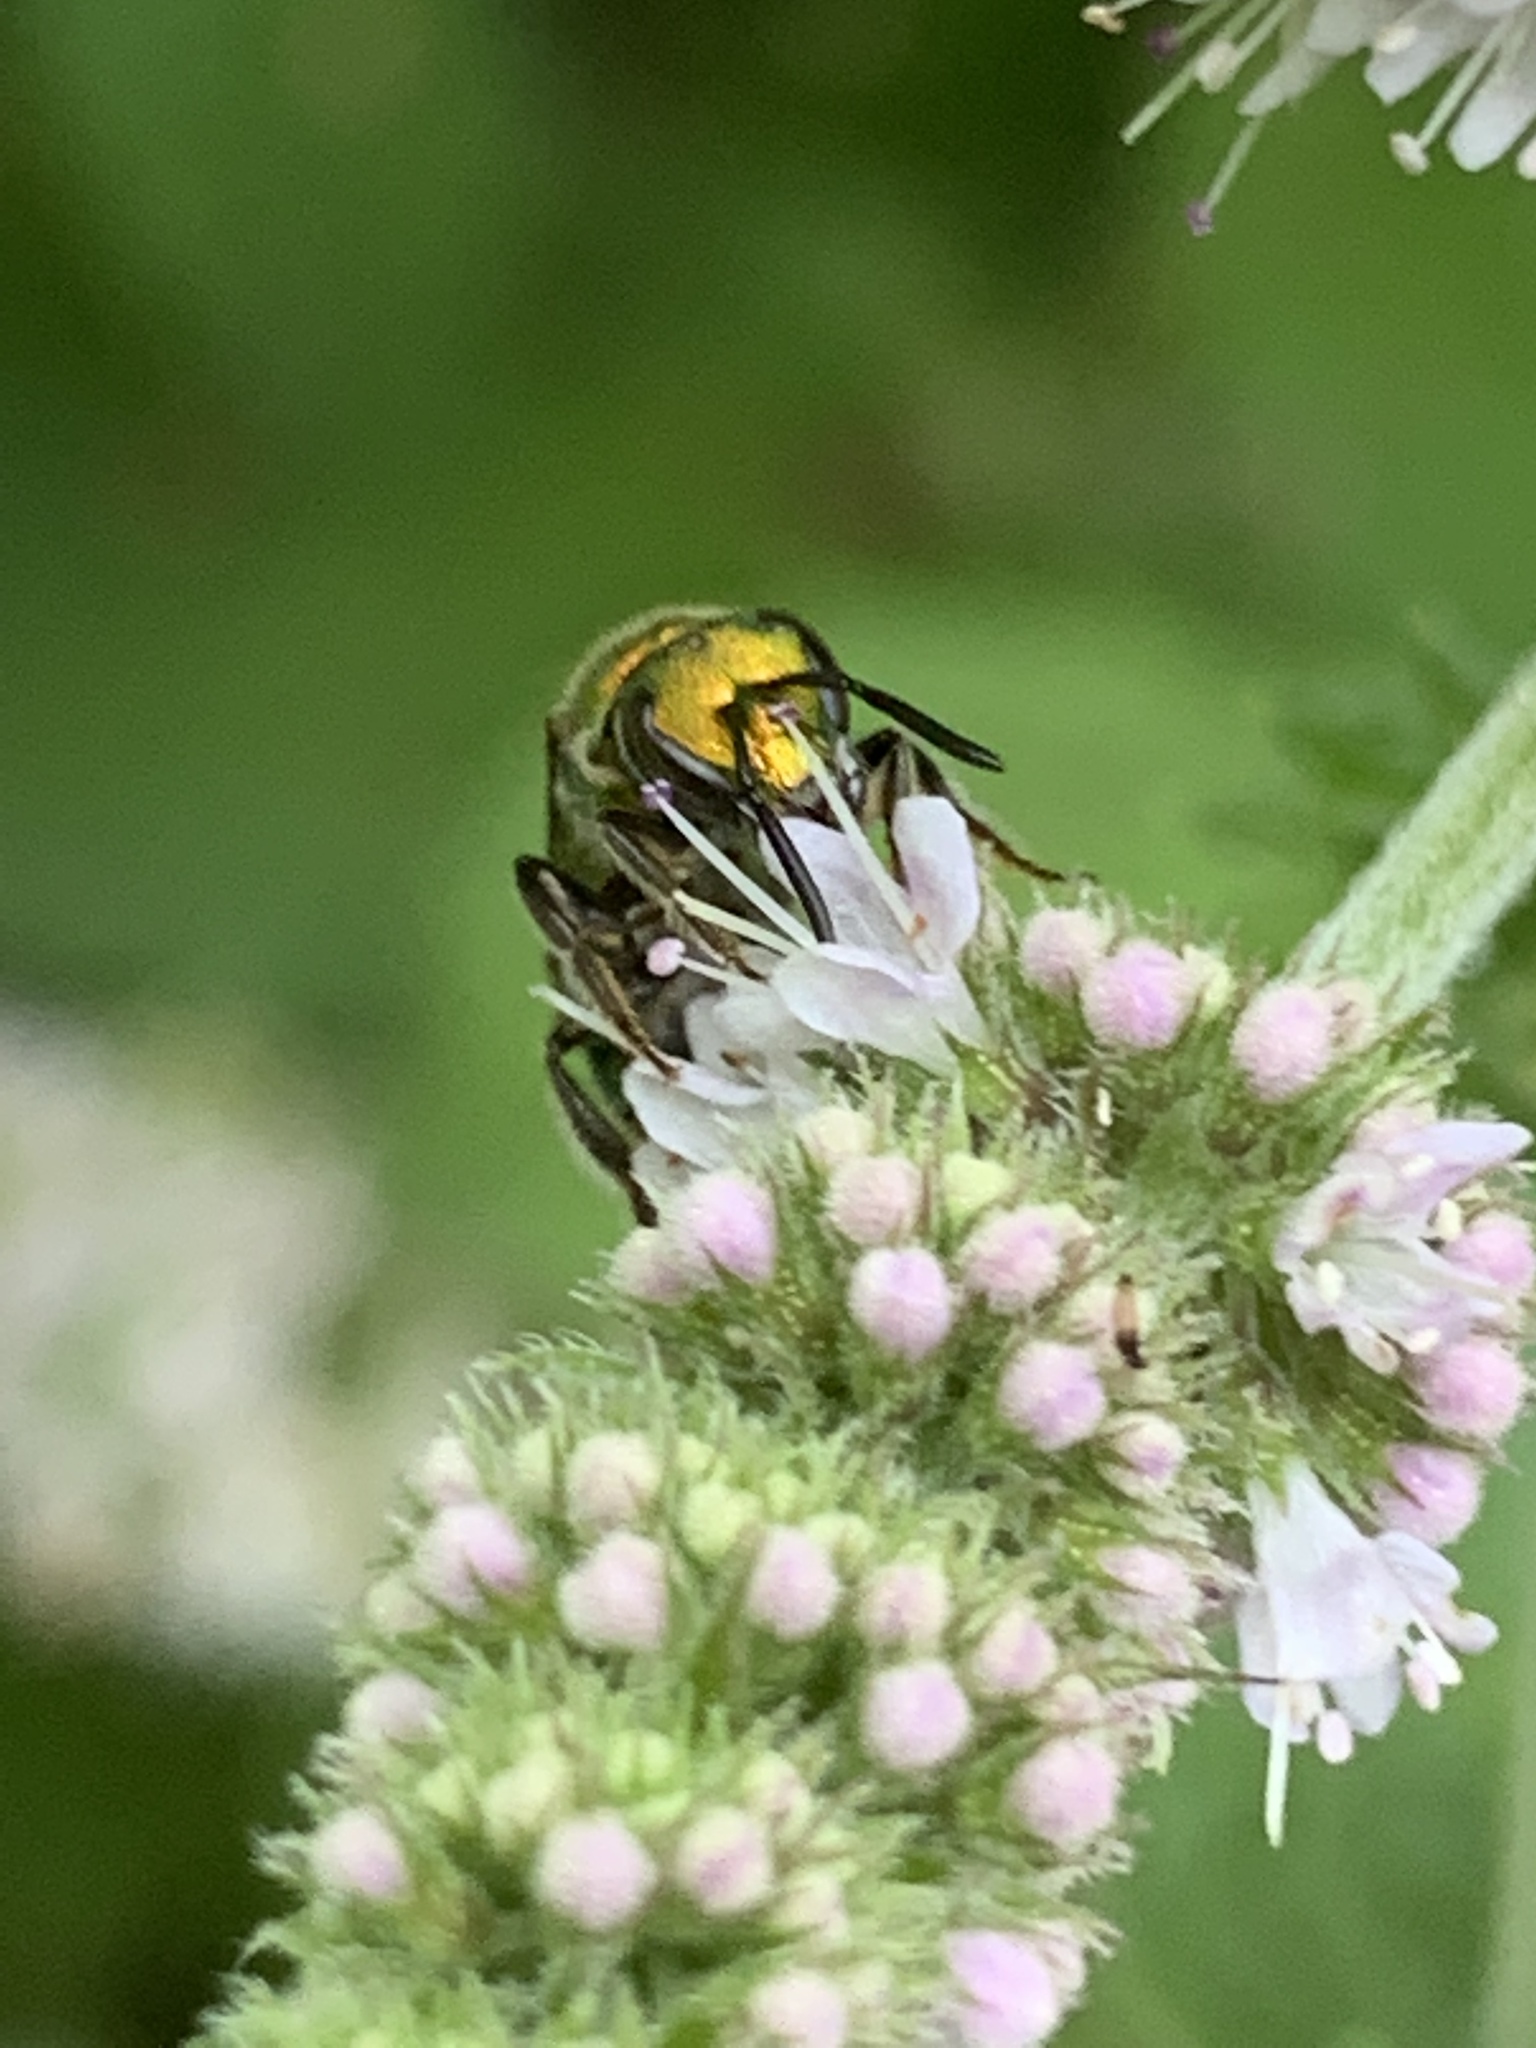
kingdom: Animalia
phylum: Arthropoda
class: Insecta
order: Hymenoptera
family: Halictidae
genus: Augochlora
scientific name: Augochlora pura
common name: Pure green sweat bee
